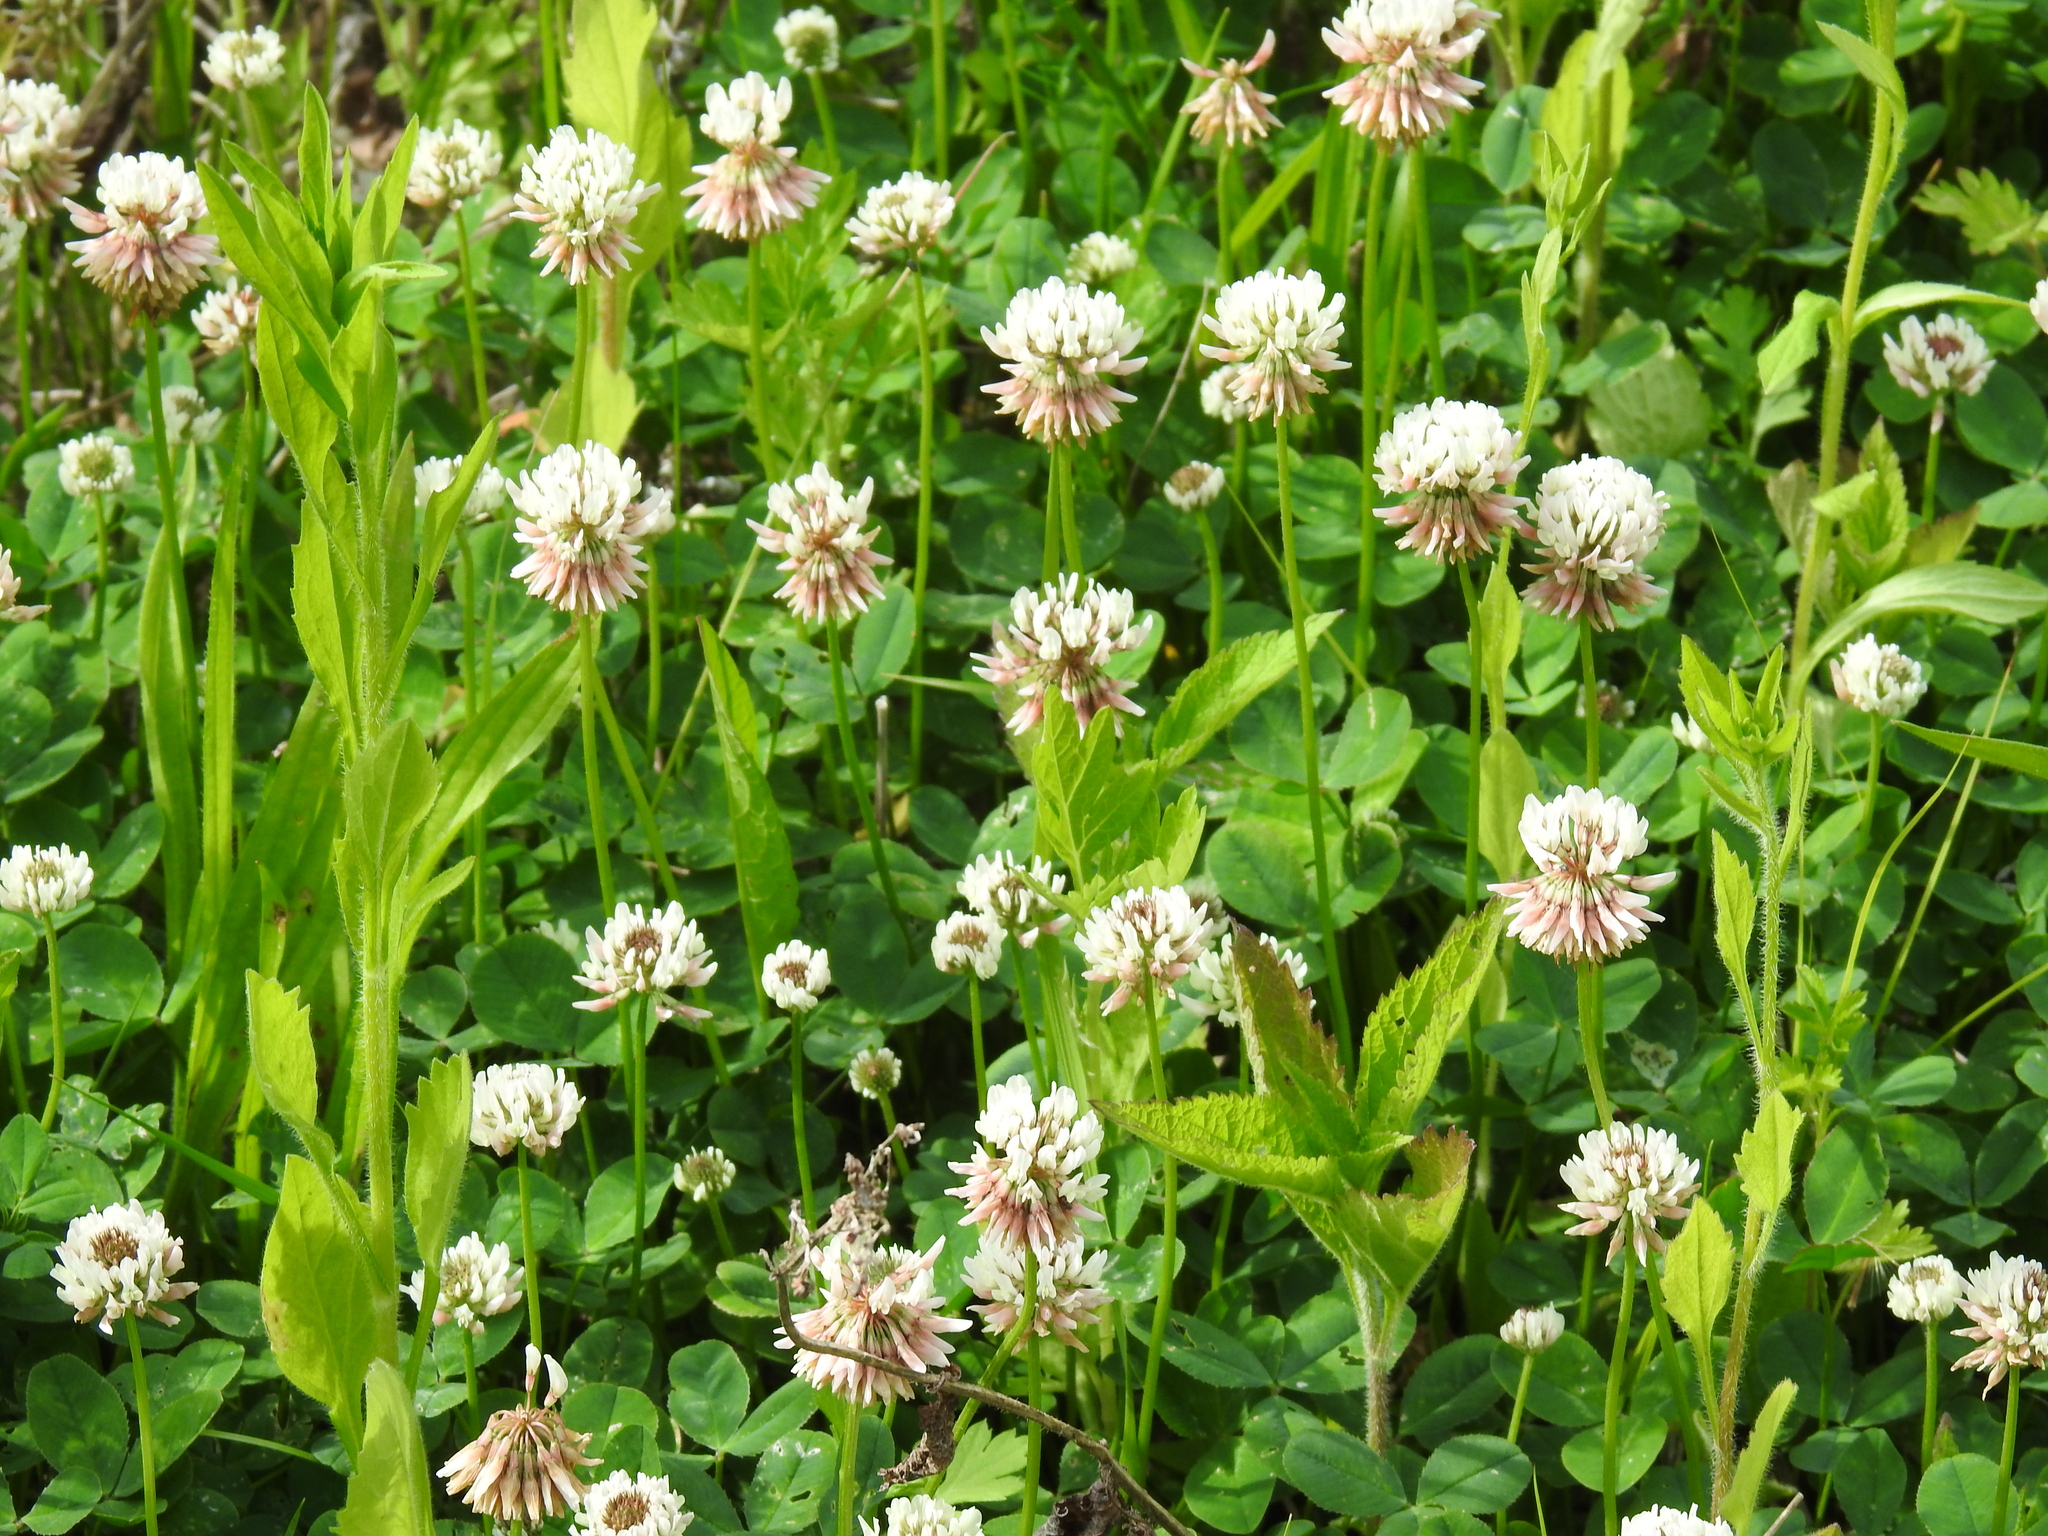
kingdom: Plantae
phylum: Tracheophyta
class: Magnoliopsida
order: Fabales
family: Fabaceae
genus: Trifolium
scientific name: Trifolium repens
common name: White clover
